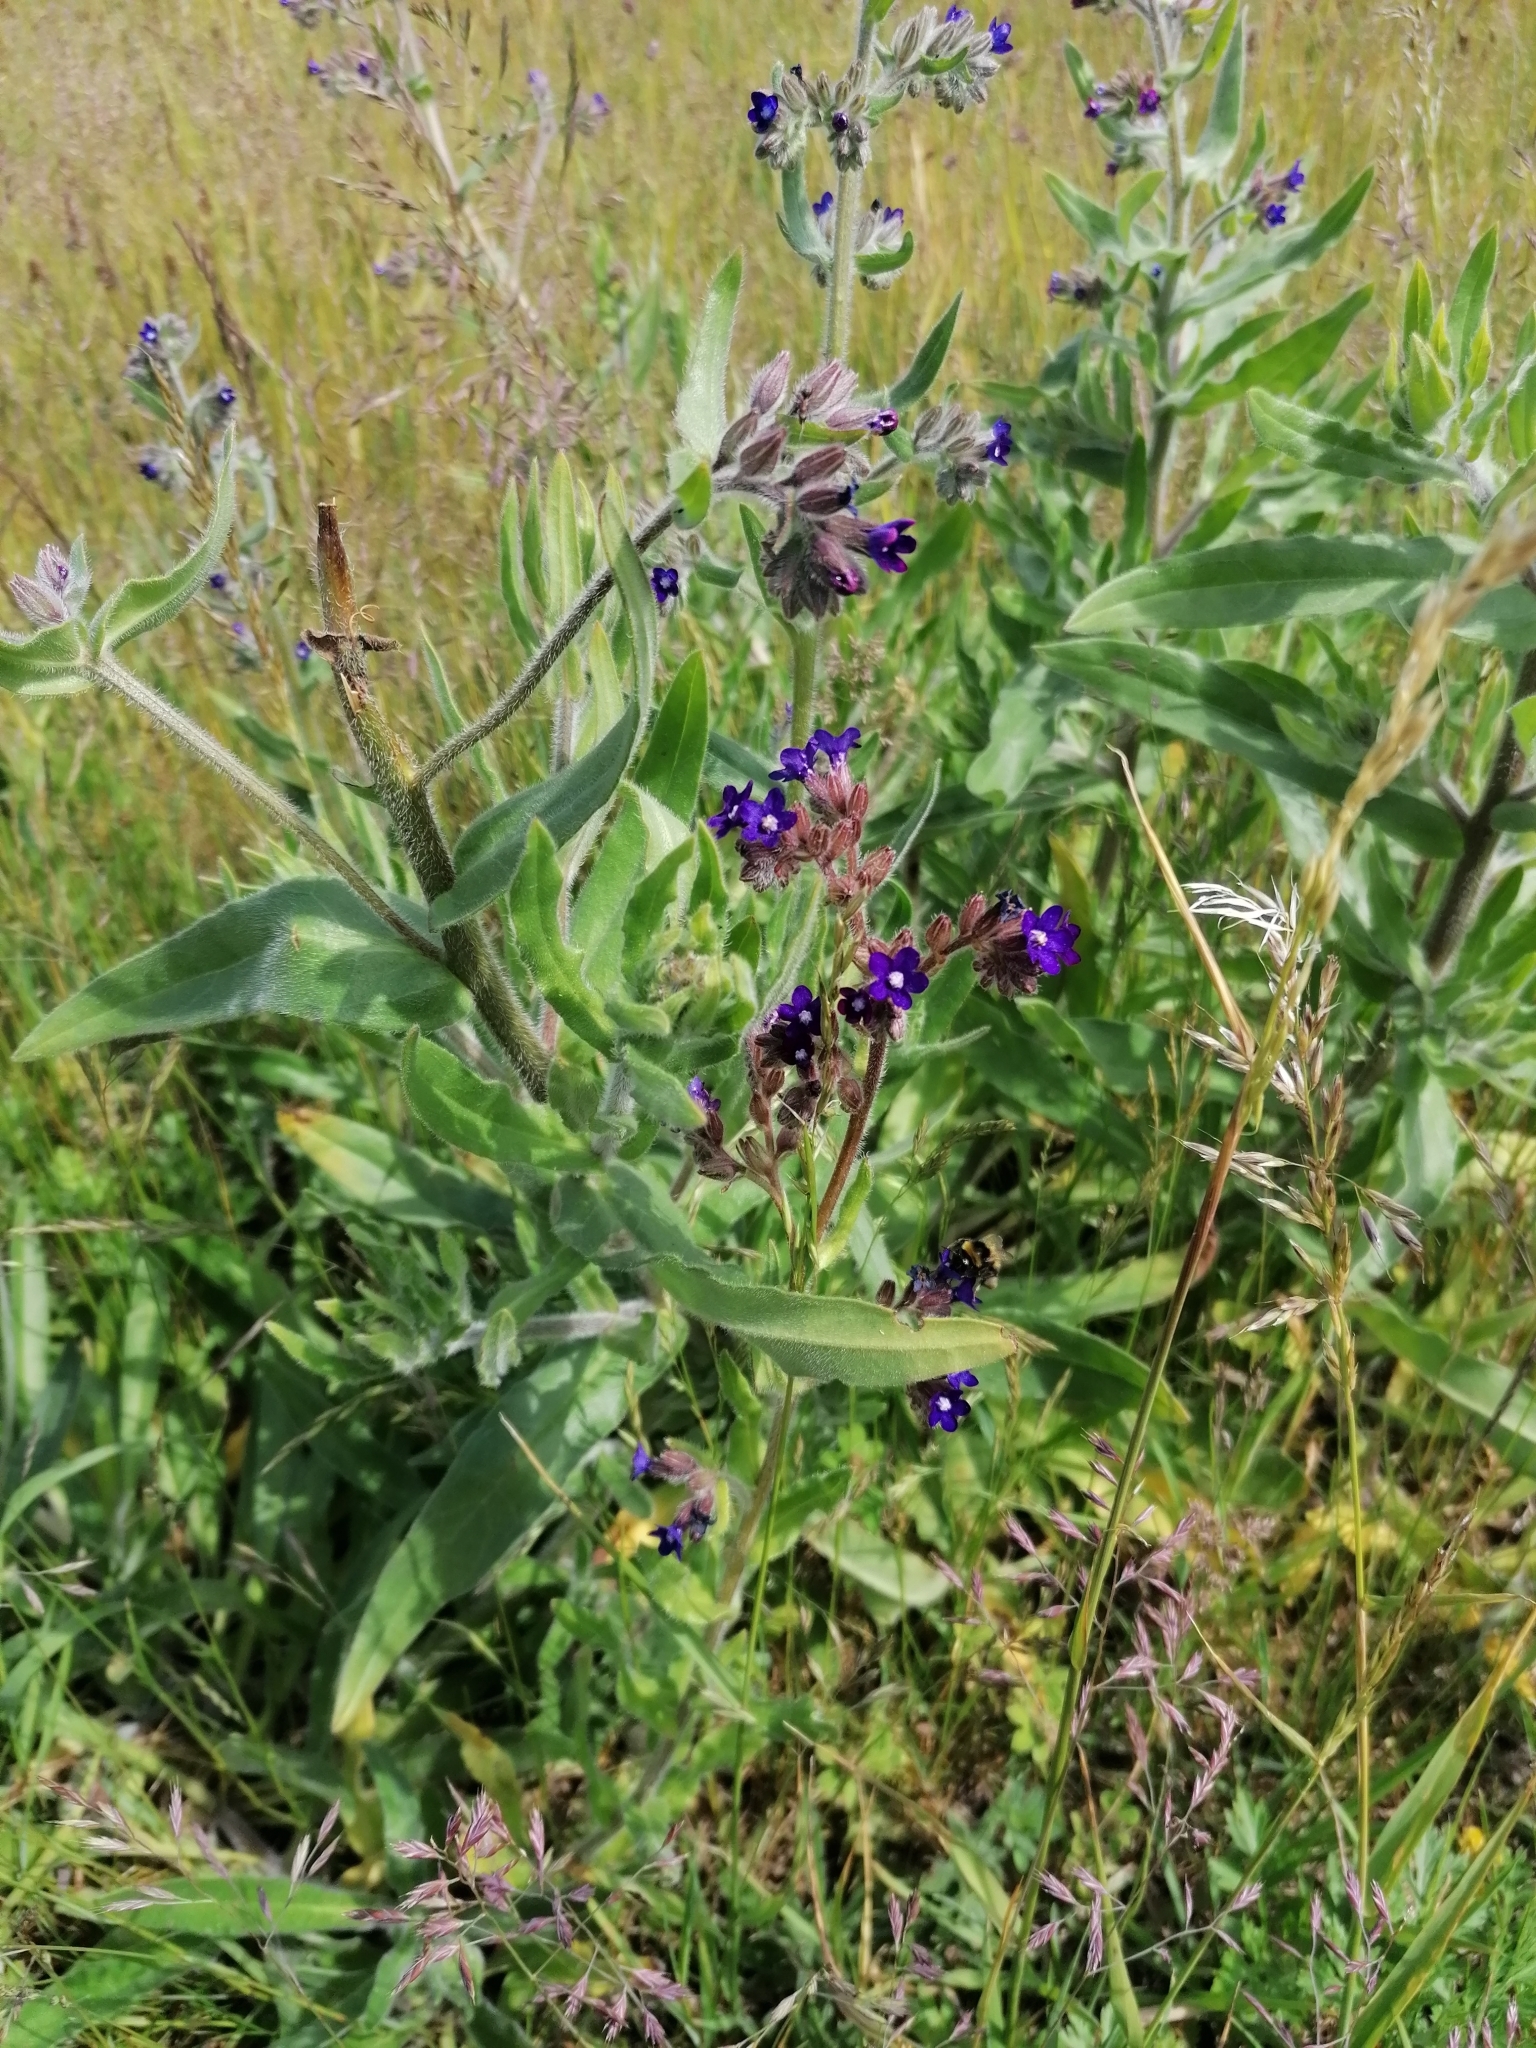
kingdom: Plantae
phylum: Tracheophyta
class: Magnoliopsida
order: Boraginales
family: Boraginaceae
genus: Anchusa
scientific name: Anchusa officinalis
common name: Alkanet
